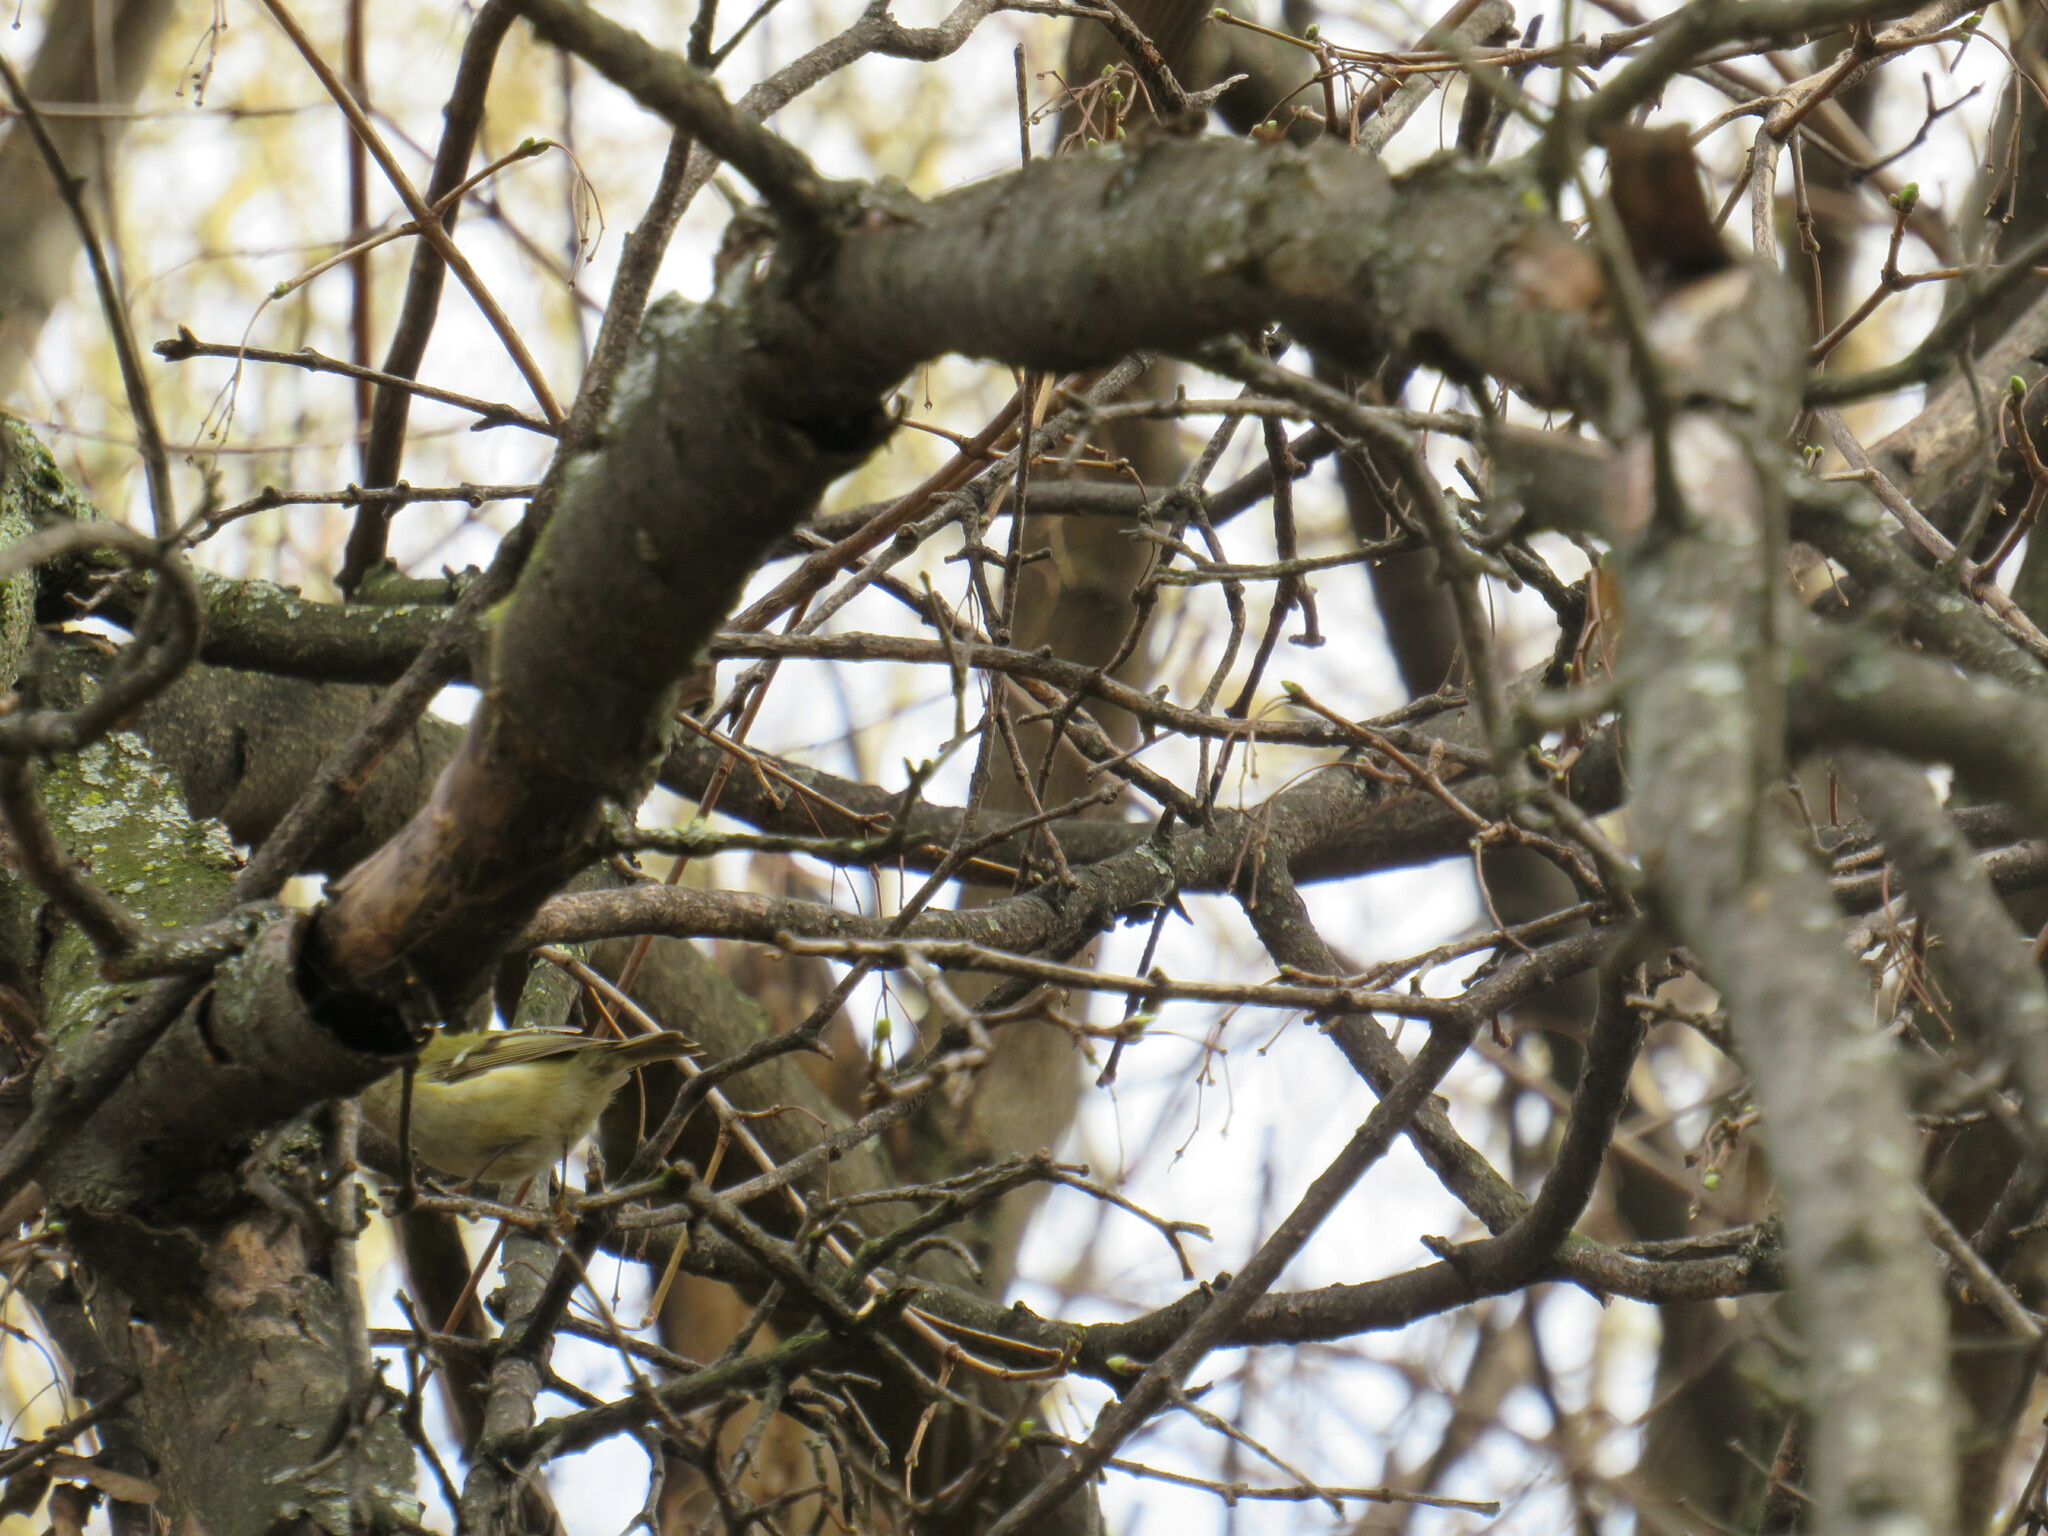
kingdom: Animalia
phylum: Chordata
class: Aves
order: Passeriformes
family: Regulidae
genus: Regulus
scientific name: Regulus regulus
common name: Goldcrest
